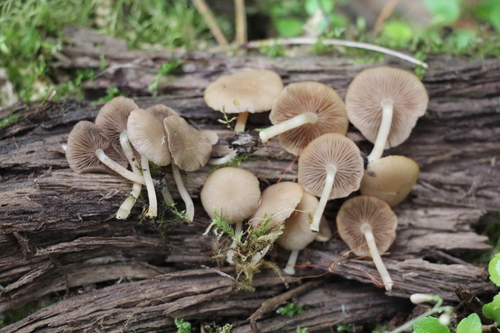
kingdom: Fungi
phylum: Basidiomycota
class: Agaricomycetes
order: Agaricales
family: Psathyrellaceae
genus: Psathyrella
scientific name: Psathyrella pygmaea
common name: Pygmy brittlestem
